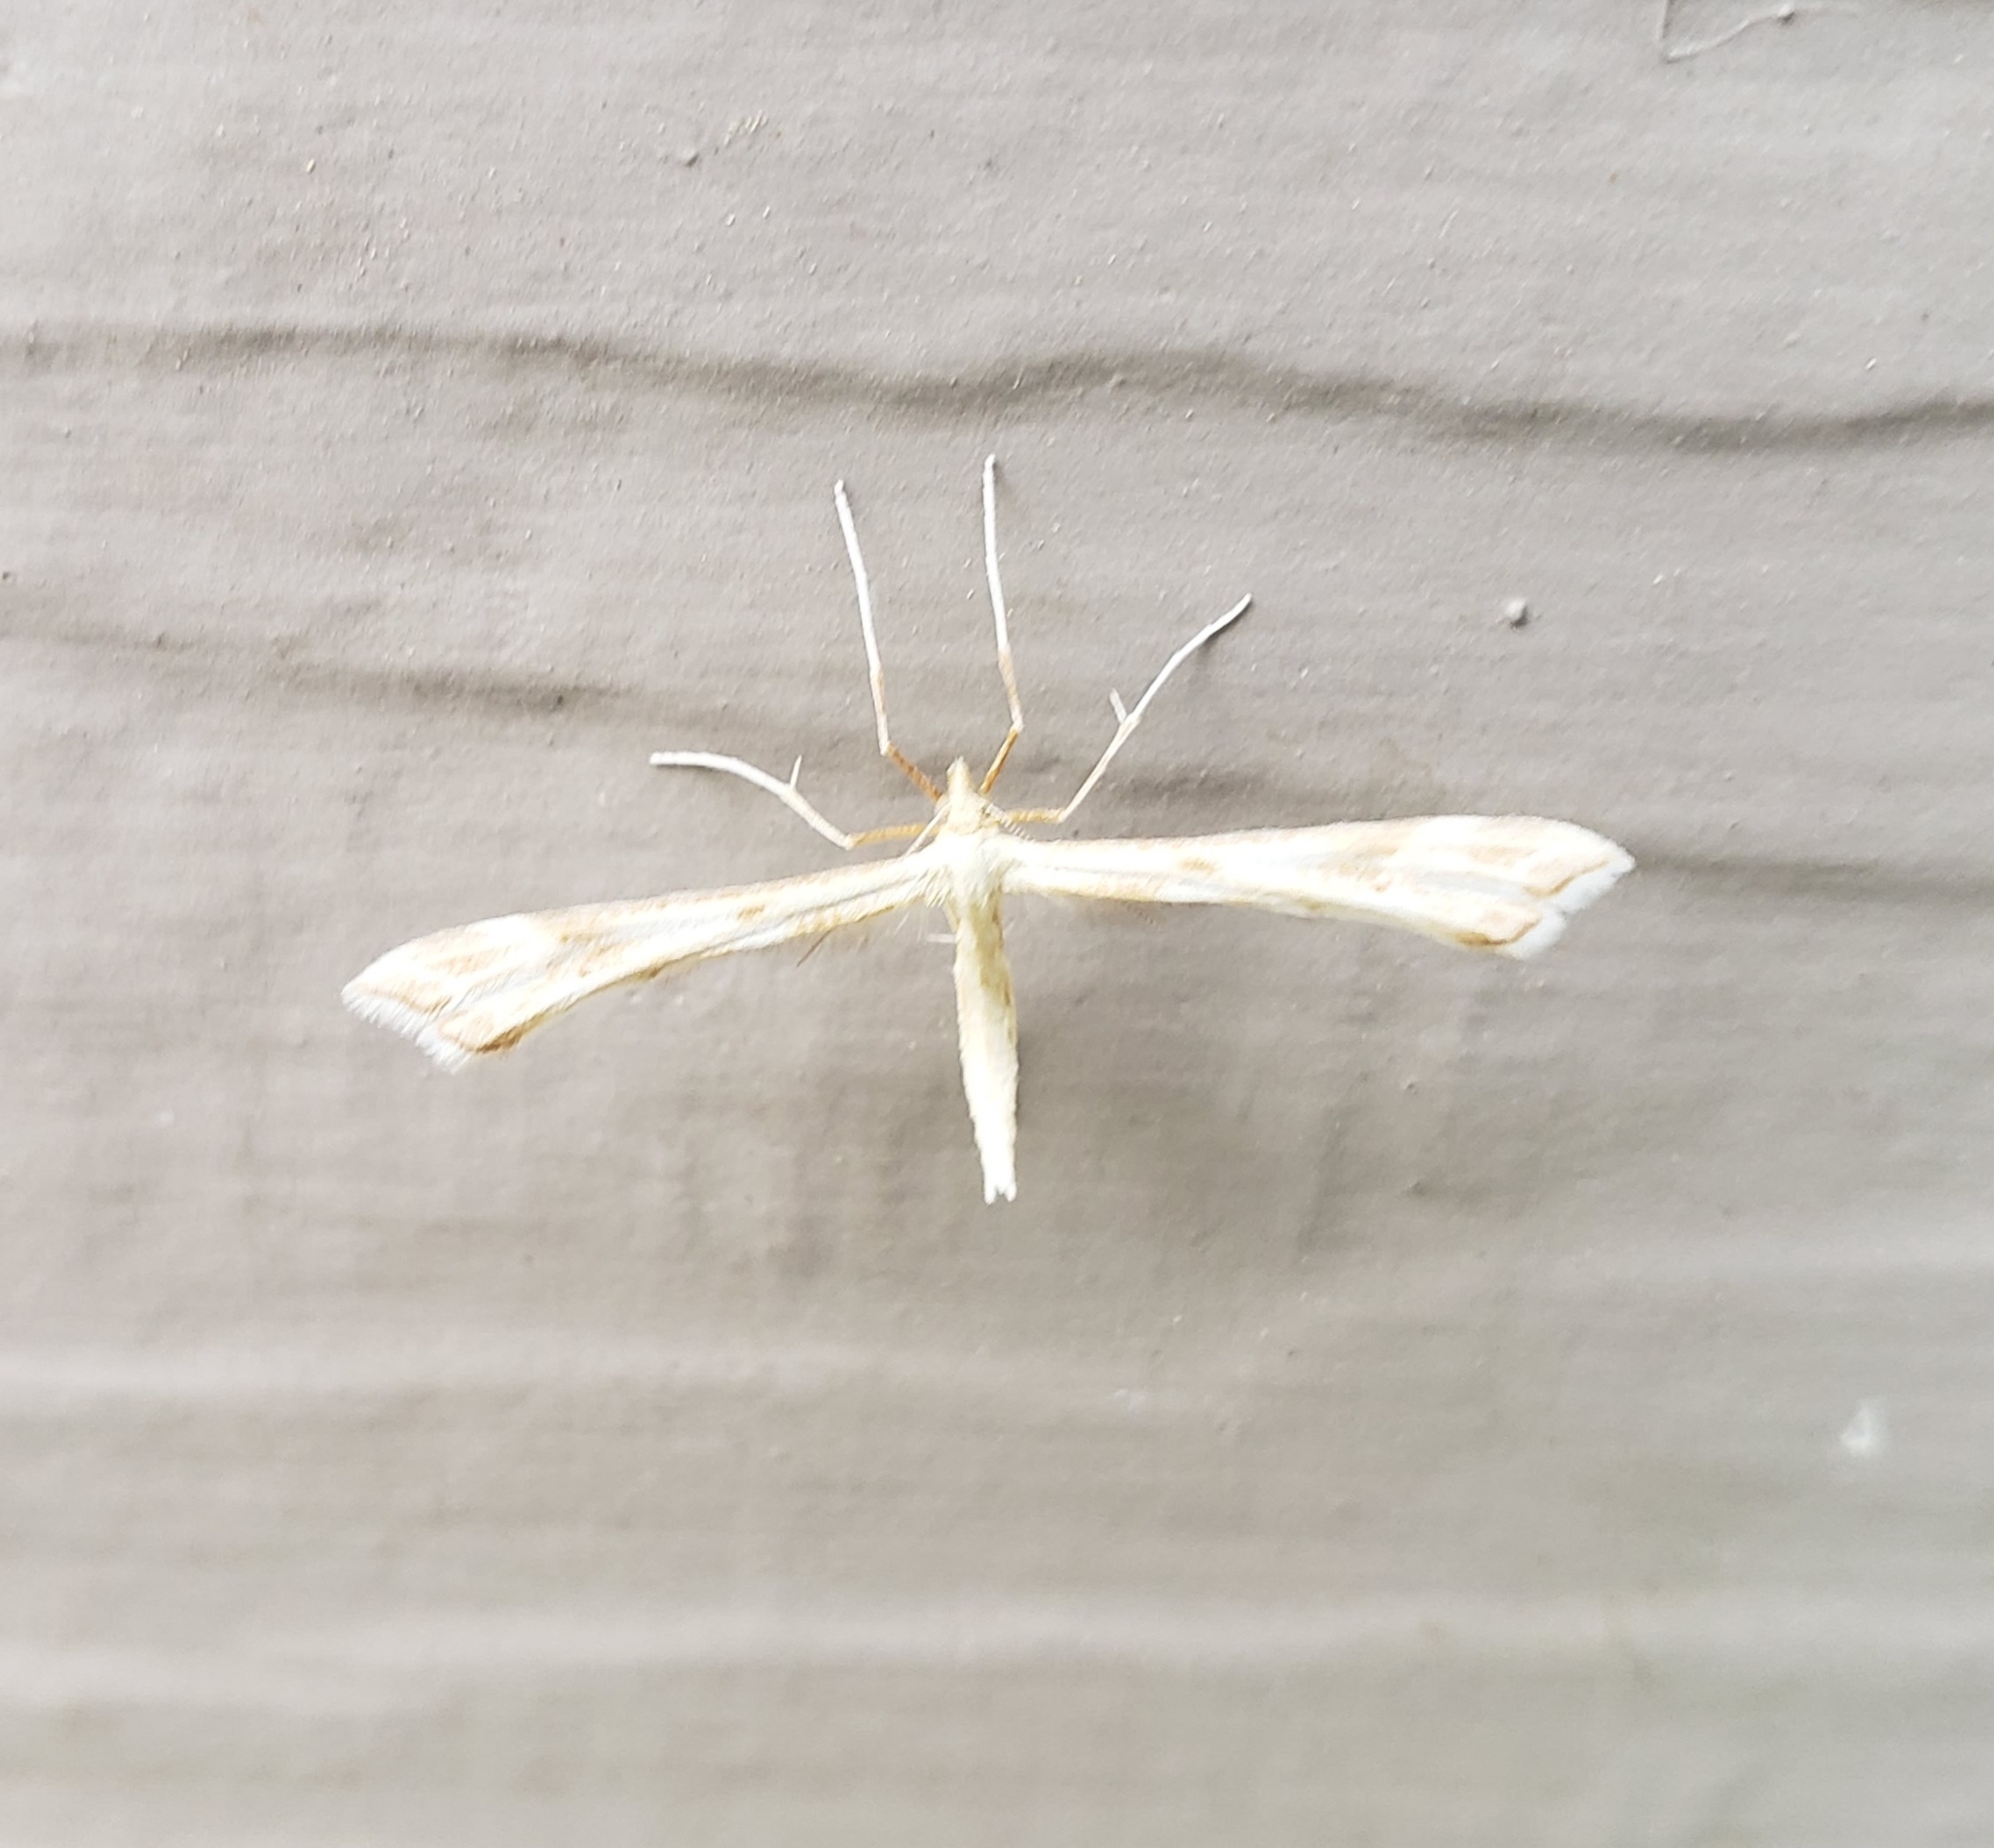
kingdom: Animalia
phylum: Arthropoda
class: Insecta
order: Lepidoptera
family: Pterophoridae
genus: Gillmeria
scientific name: Gillmeria pallidactyla
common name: Yarrow plume
